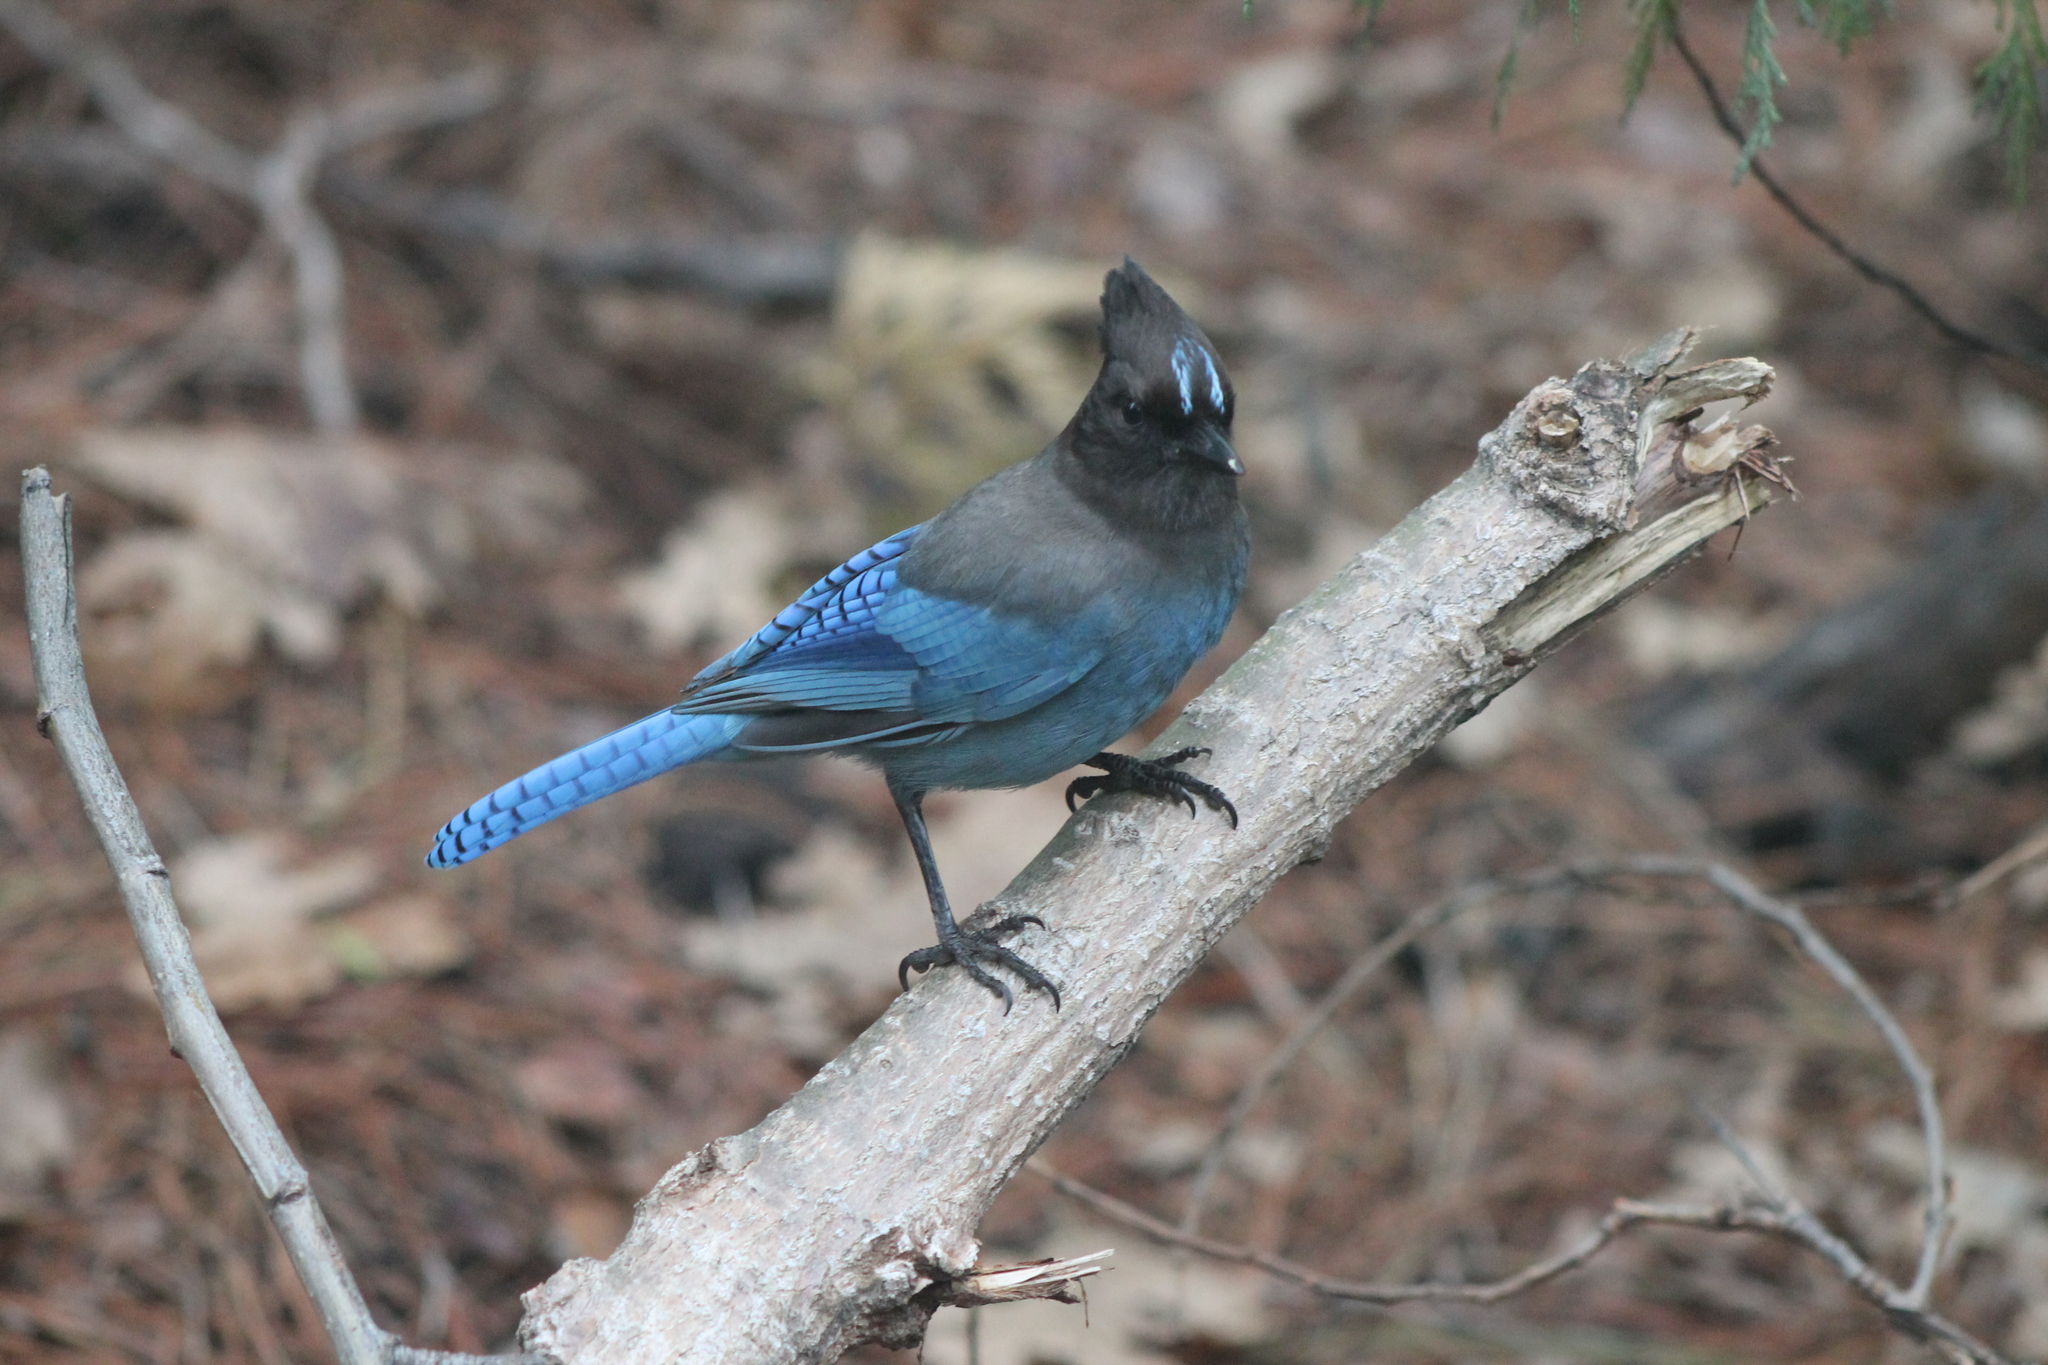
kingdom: Animalia
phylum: Chordata
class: Aves
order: Passeriformes
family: Corvidae
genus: Cyanocitta
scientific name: Cyanocitta stelleri
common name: Steller's jay
